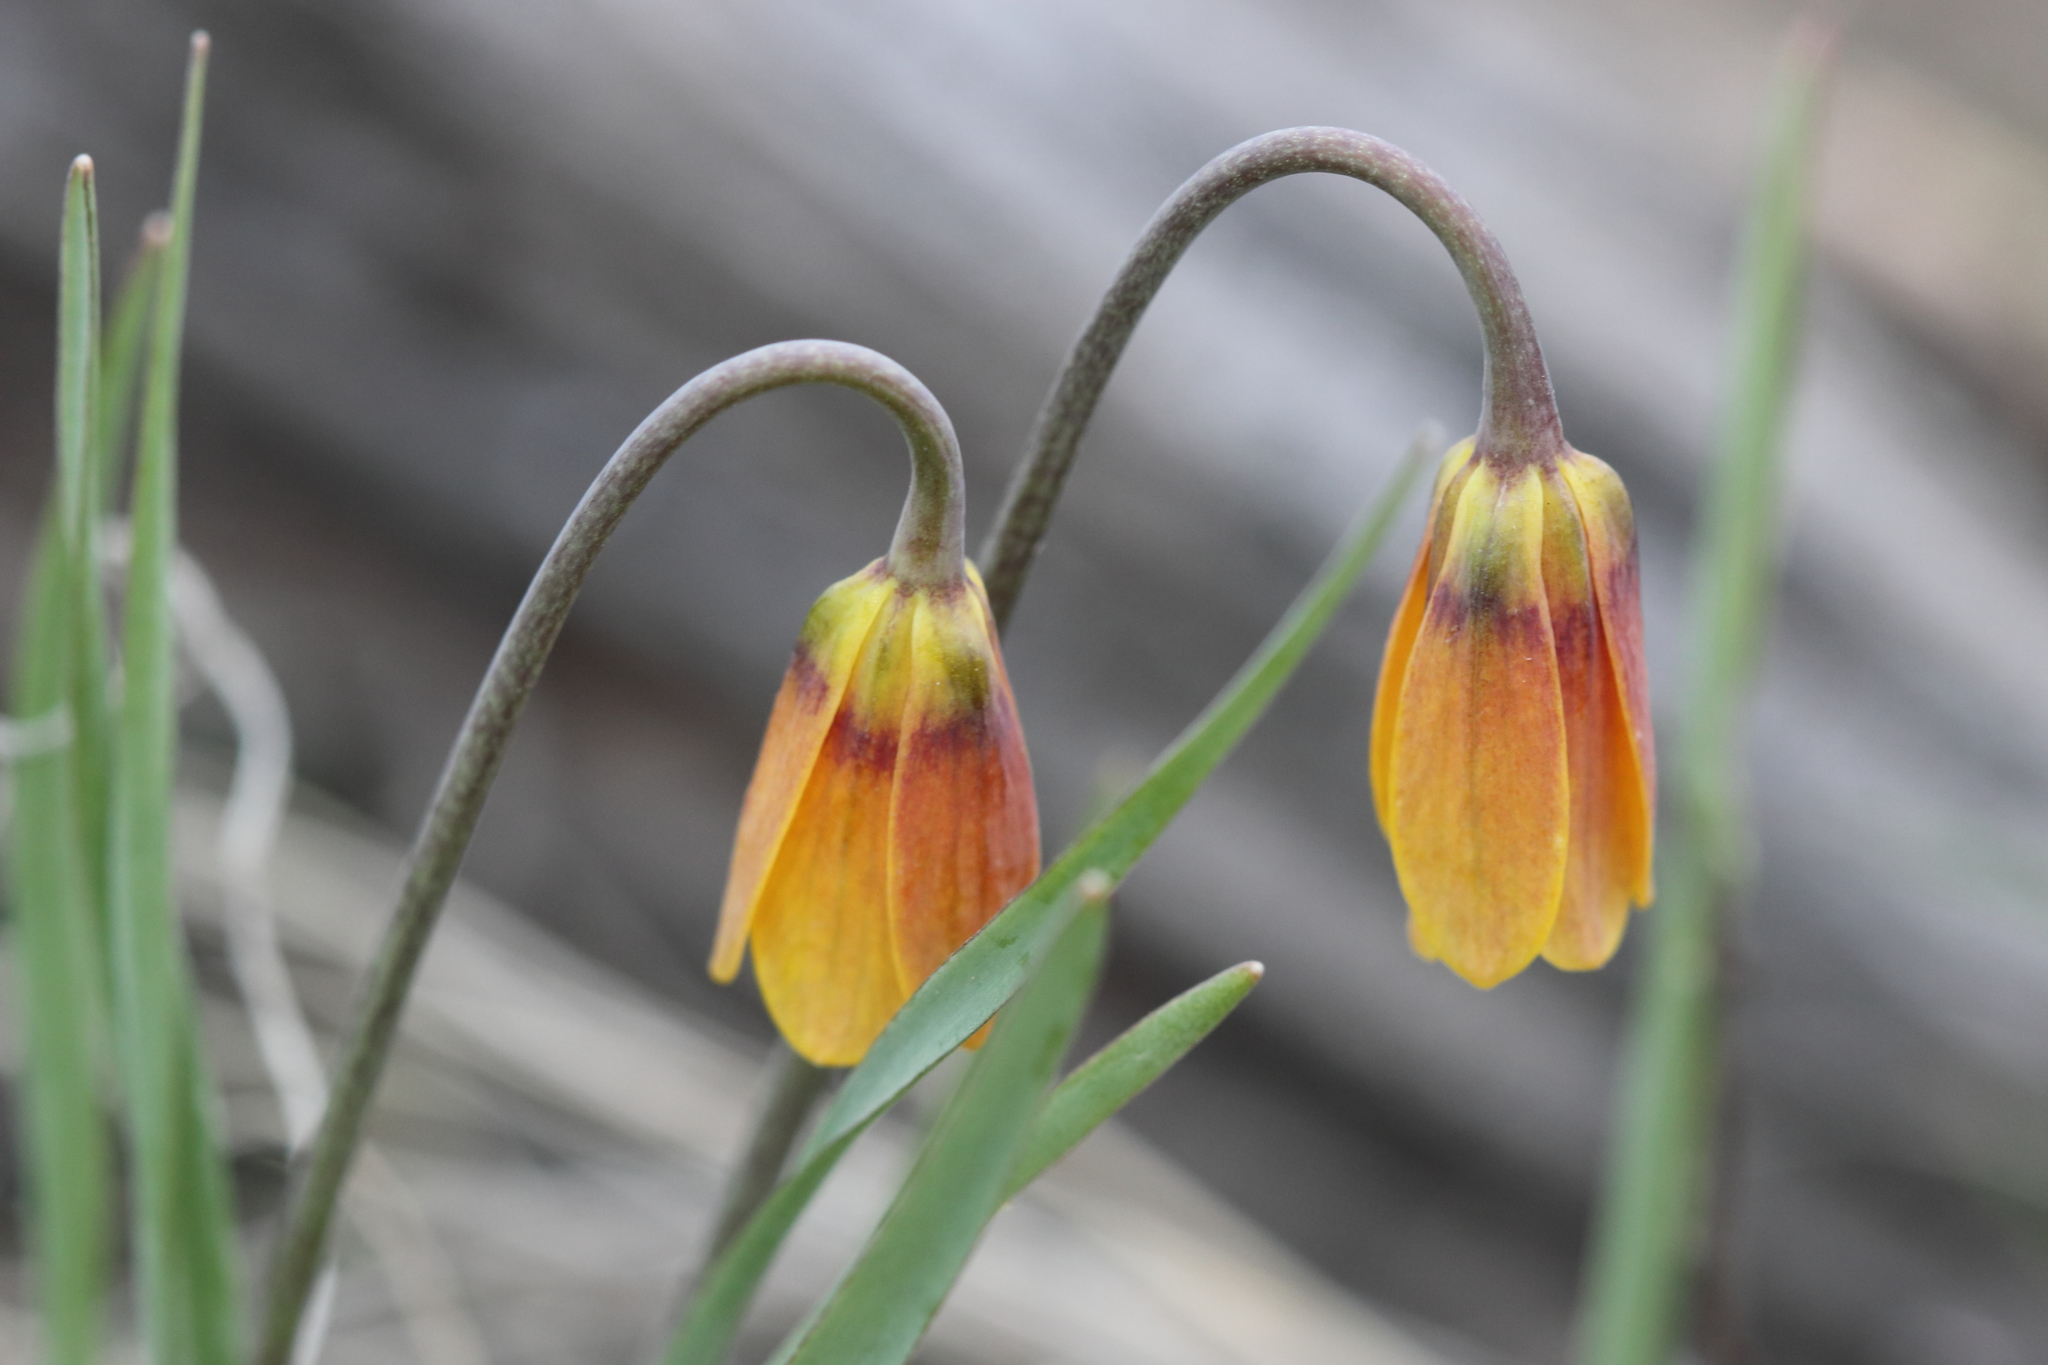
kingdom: Plantae
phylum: Tracheophyta
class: Liliopsida
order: Liliales
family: Liliaceae
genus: Fritillaria
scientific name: Fritillaria pudica
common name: Yellow fritillary
